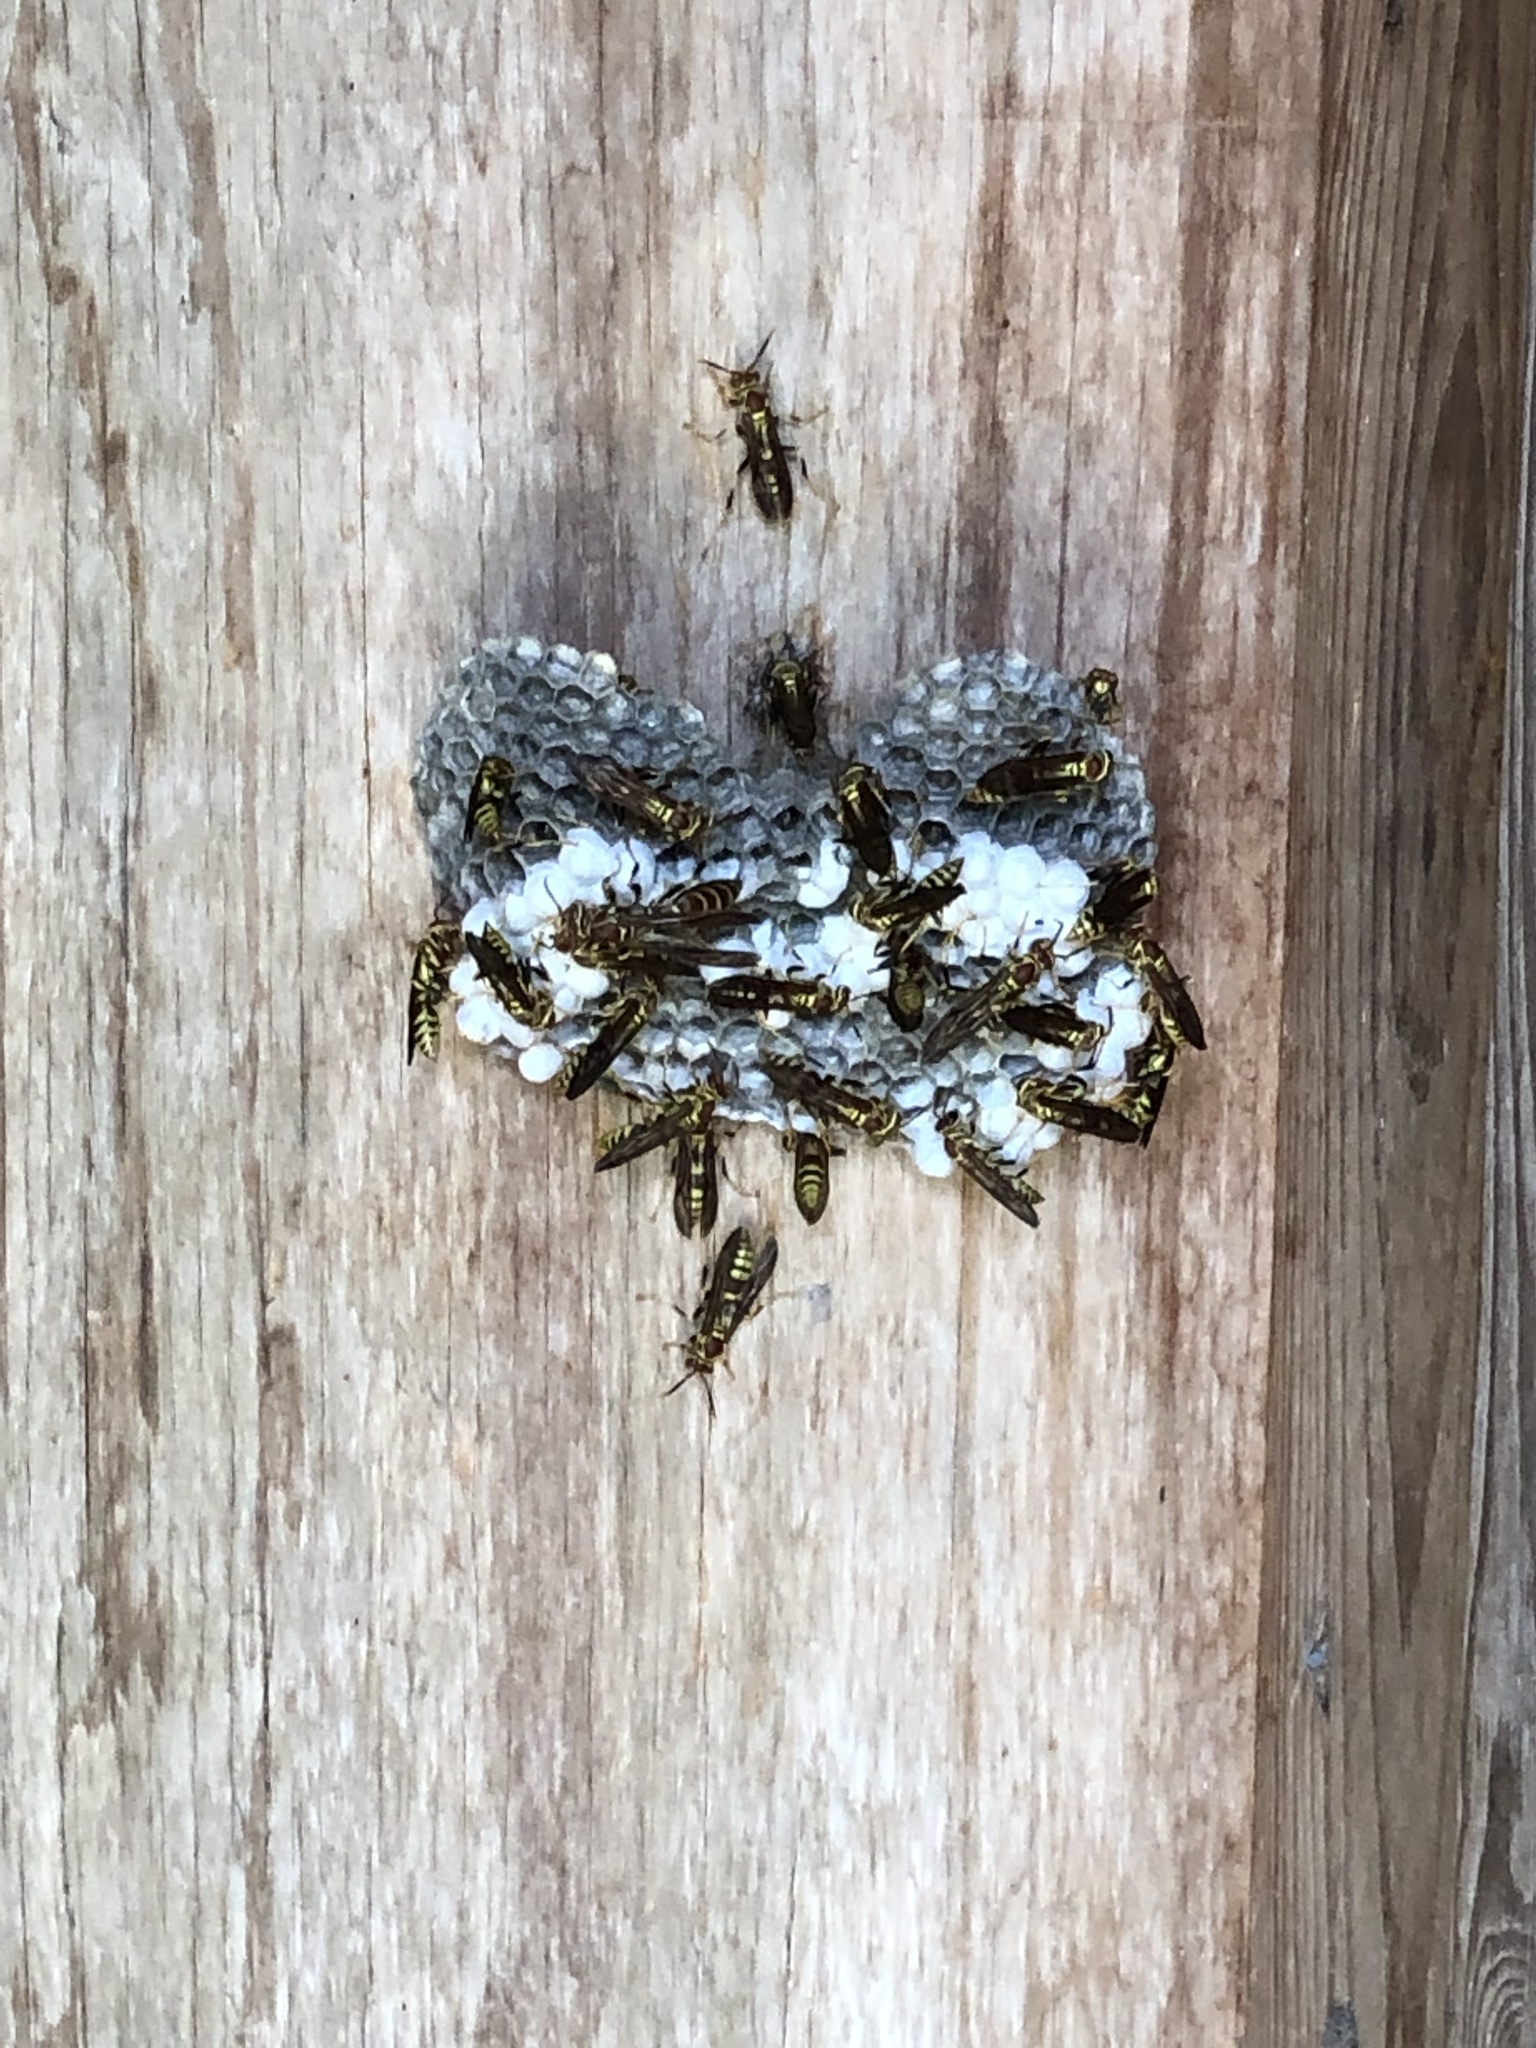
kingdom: Animalia
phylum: Arthropoda
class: Insecta
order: Hymenoptera
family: Eumenidae
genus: Polistes
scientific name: Polistes exclamans
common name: Paper wasp
